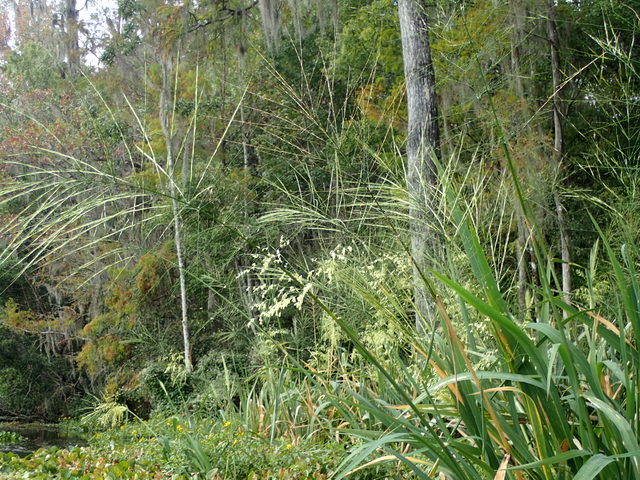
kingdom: Plantae
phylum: Tracheophyta
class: Liliopsida
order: Poales
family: Poaceae
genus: Zizania
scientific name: Zizania aquatica
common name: Annual wildrice
